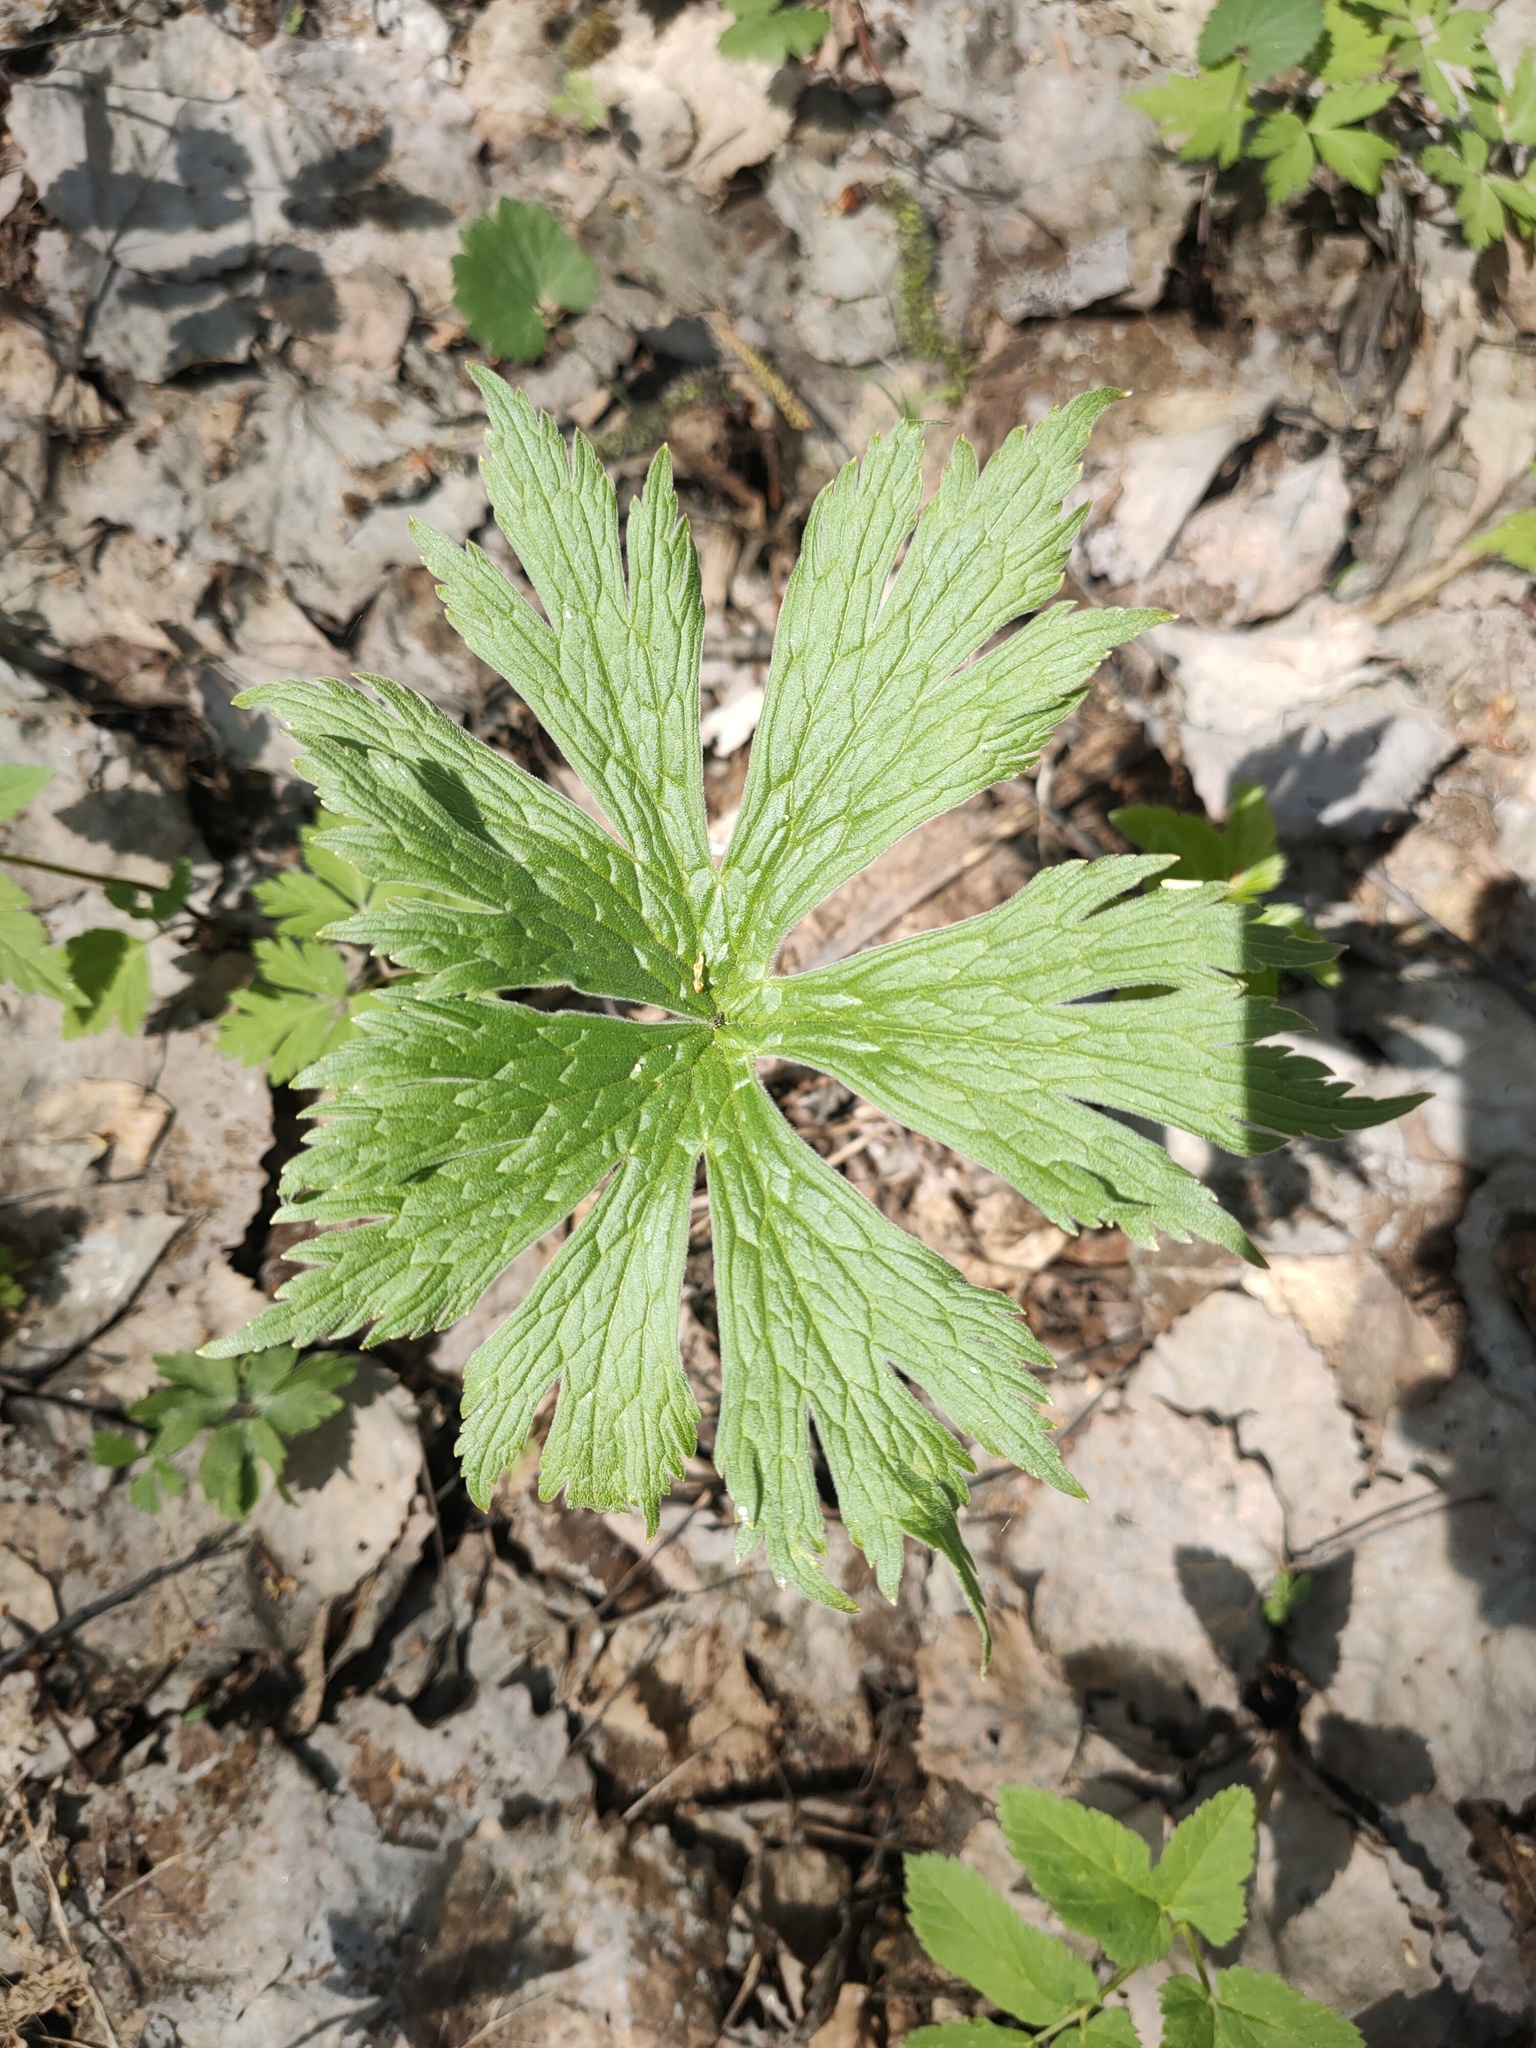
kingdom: Plantae
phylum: Tracheophyta
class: Magnoliopsida
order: Ranunculales
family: Ranunculaceae
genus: Aconitum
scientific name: Aconitum septentrionale
